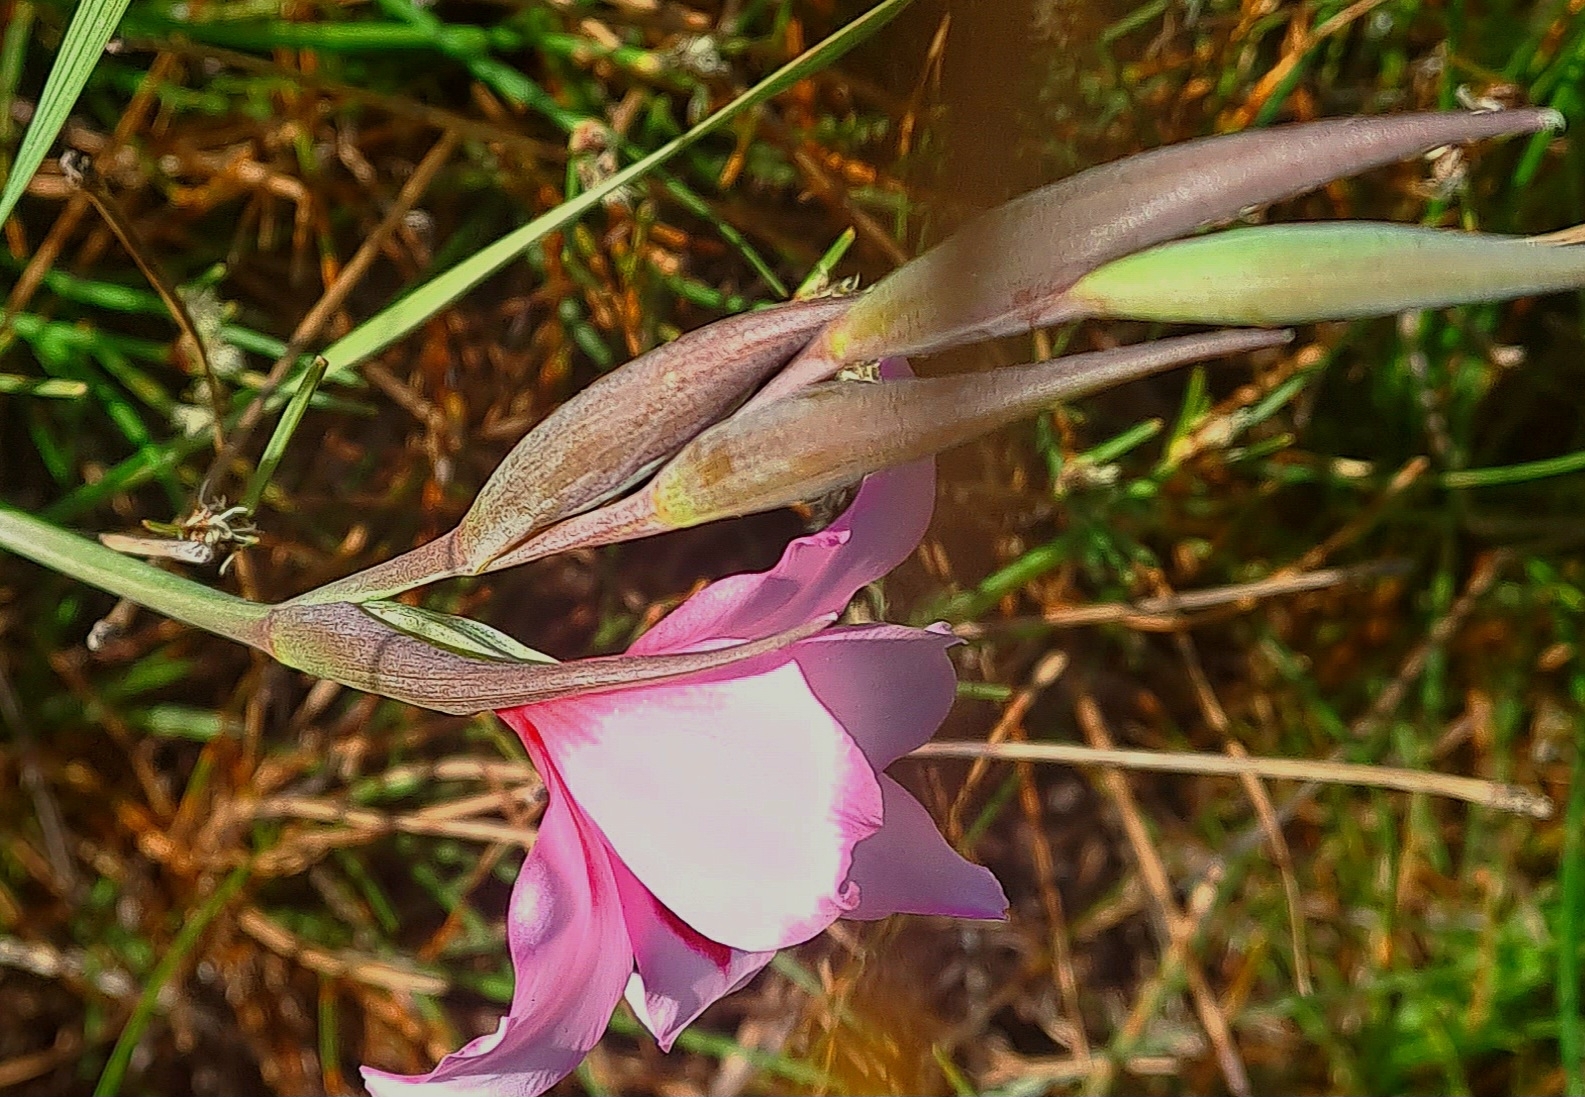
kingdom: Plantae
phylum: Tracheophyta
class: Liliopsida
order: Asparagales
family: Iridaceae
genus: Gladiolus
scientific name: Gladiolus carneus
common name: Painted-lady
